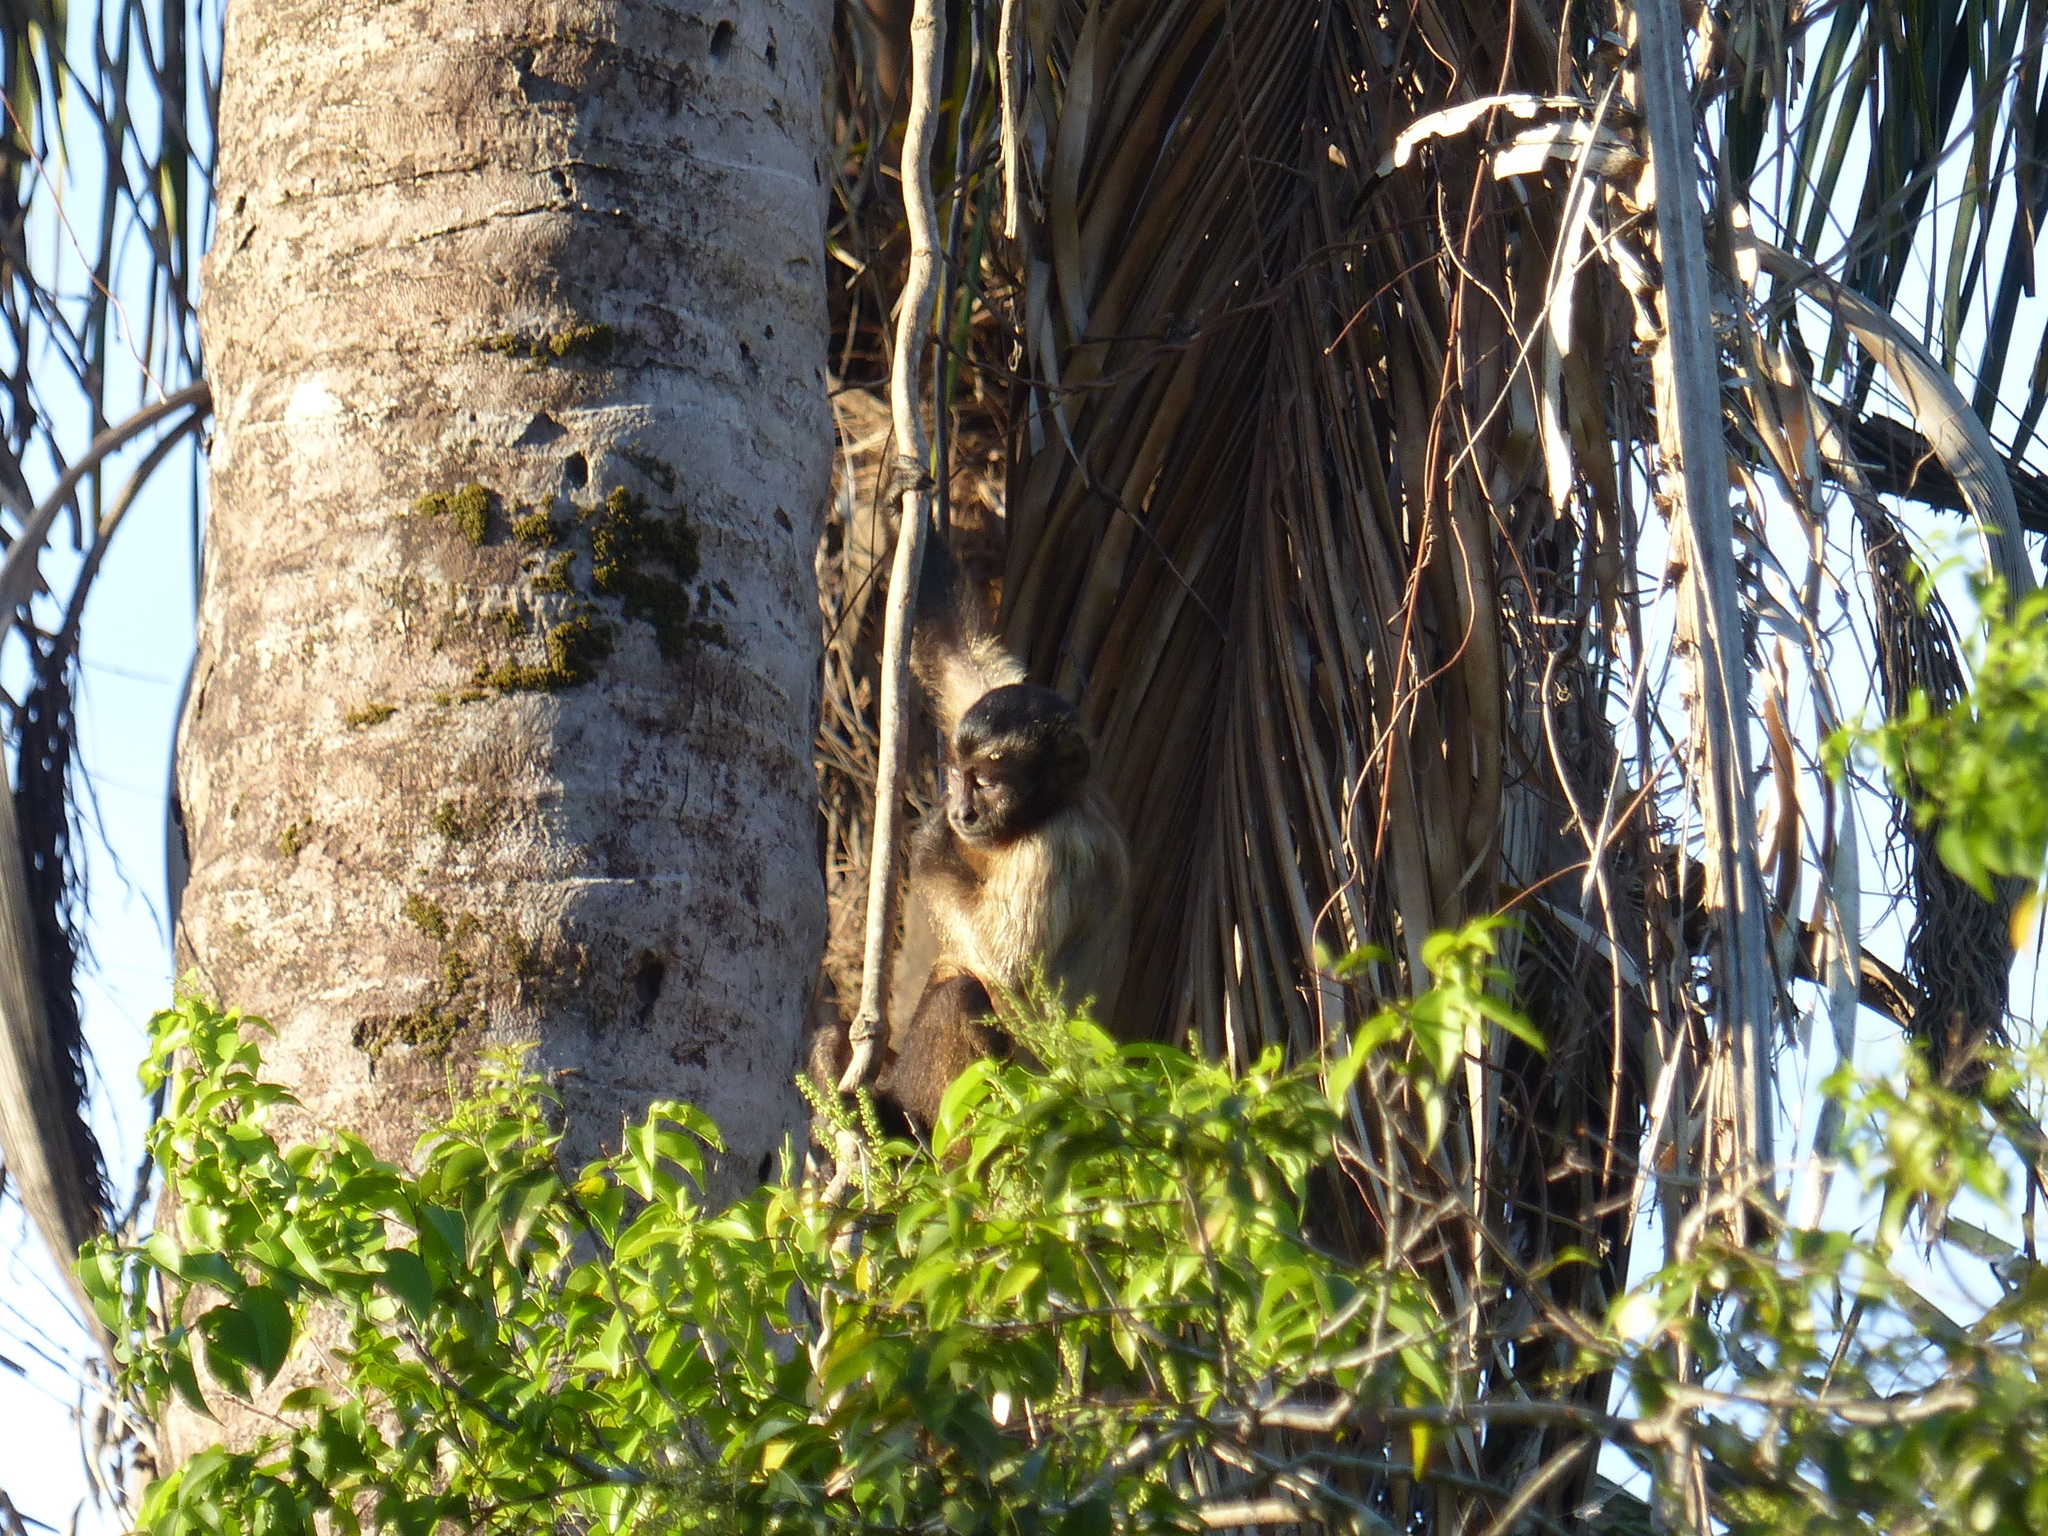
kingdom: Animalia
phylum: Chordata
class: Mammalia
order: Primates
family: Cebidae
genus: Sapajus
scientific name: Sapajus apella
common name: Tufted capuchin
